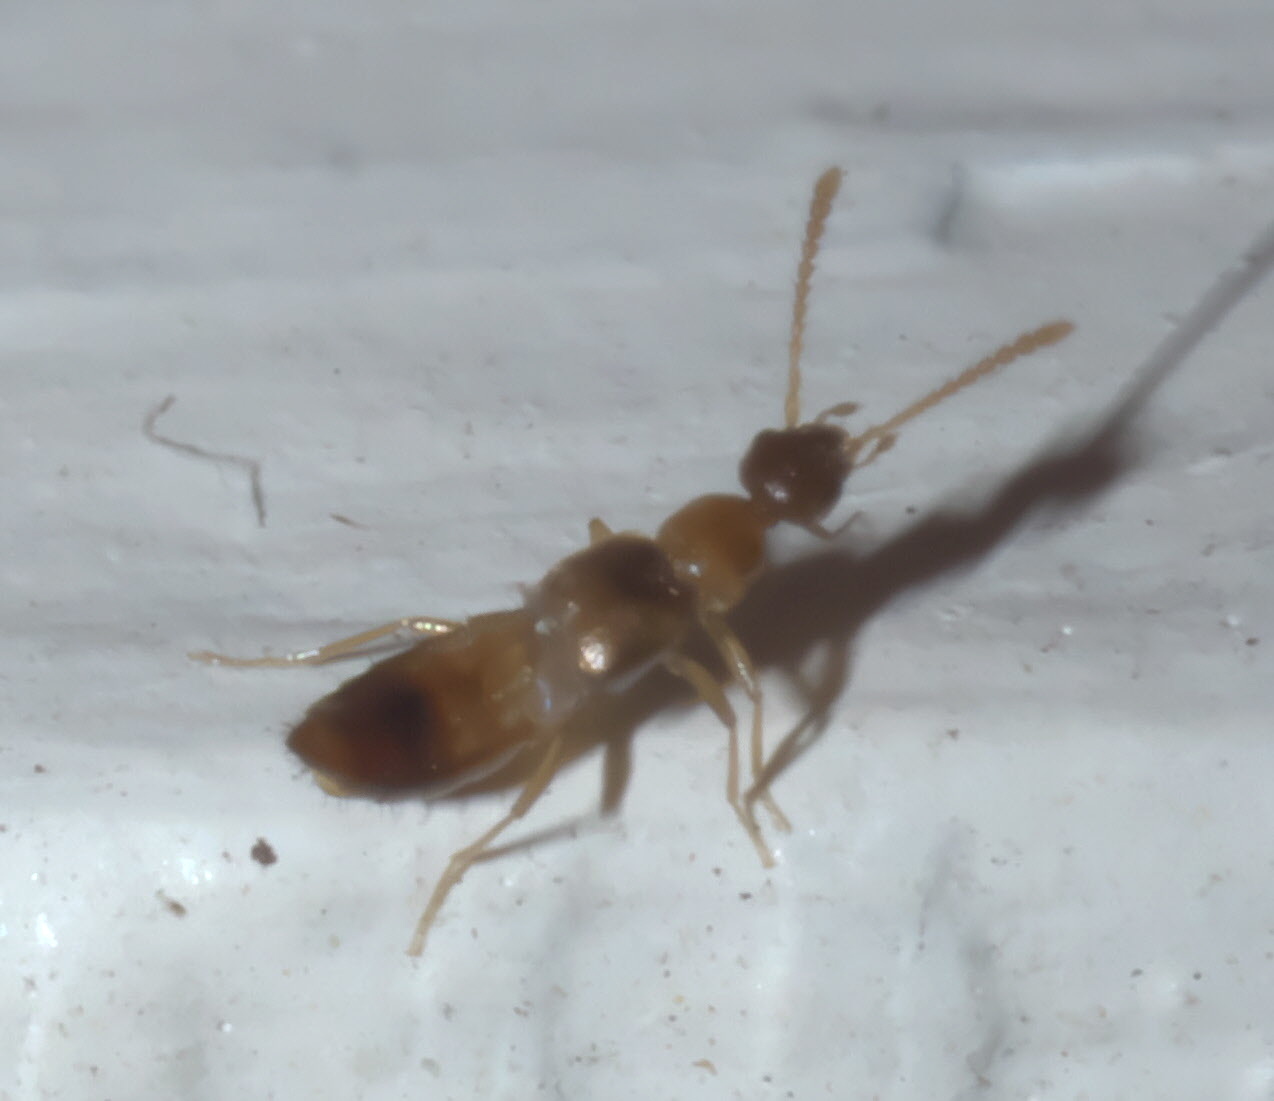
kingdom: Animalia
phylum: Arthropoda
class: Insecta
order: Coleoptera
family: Staphylinidae
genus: Meronera
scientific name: Meronera venustula
